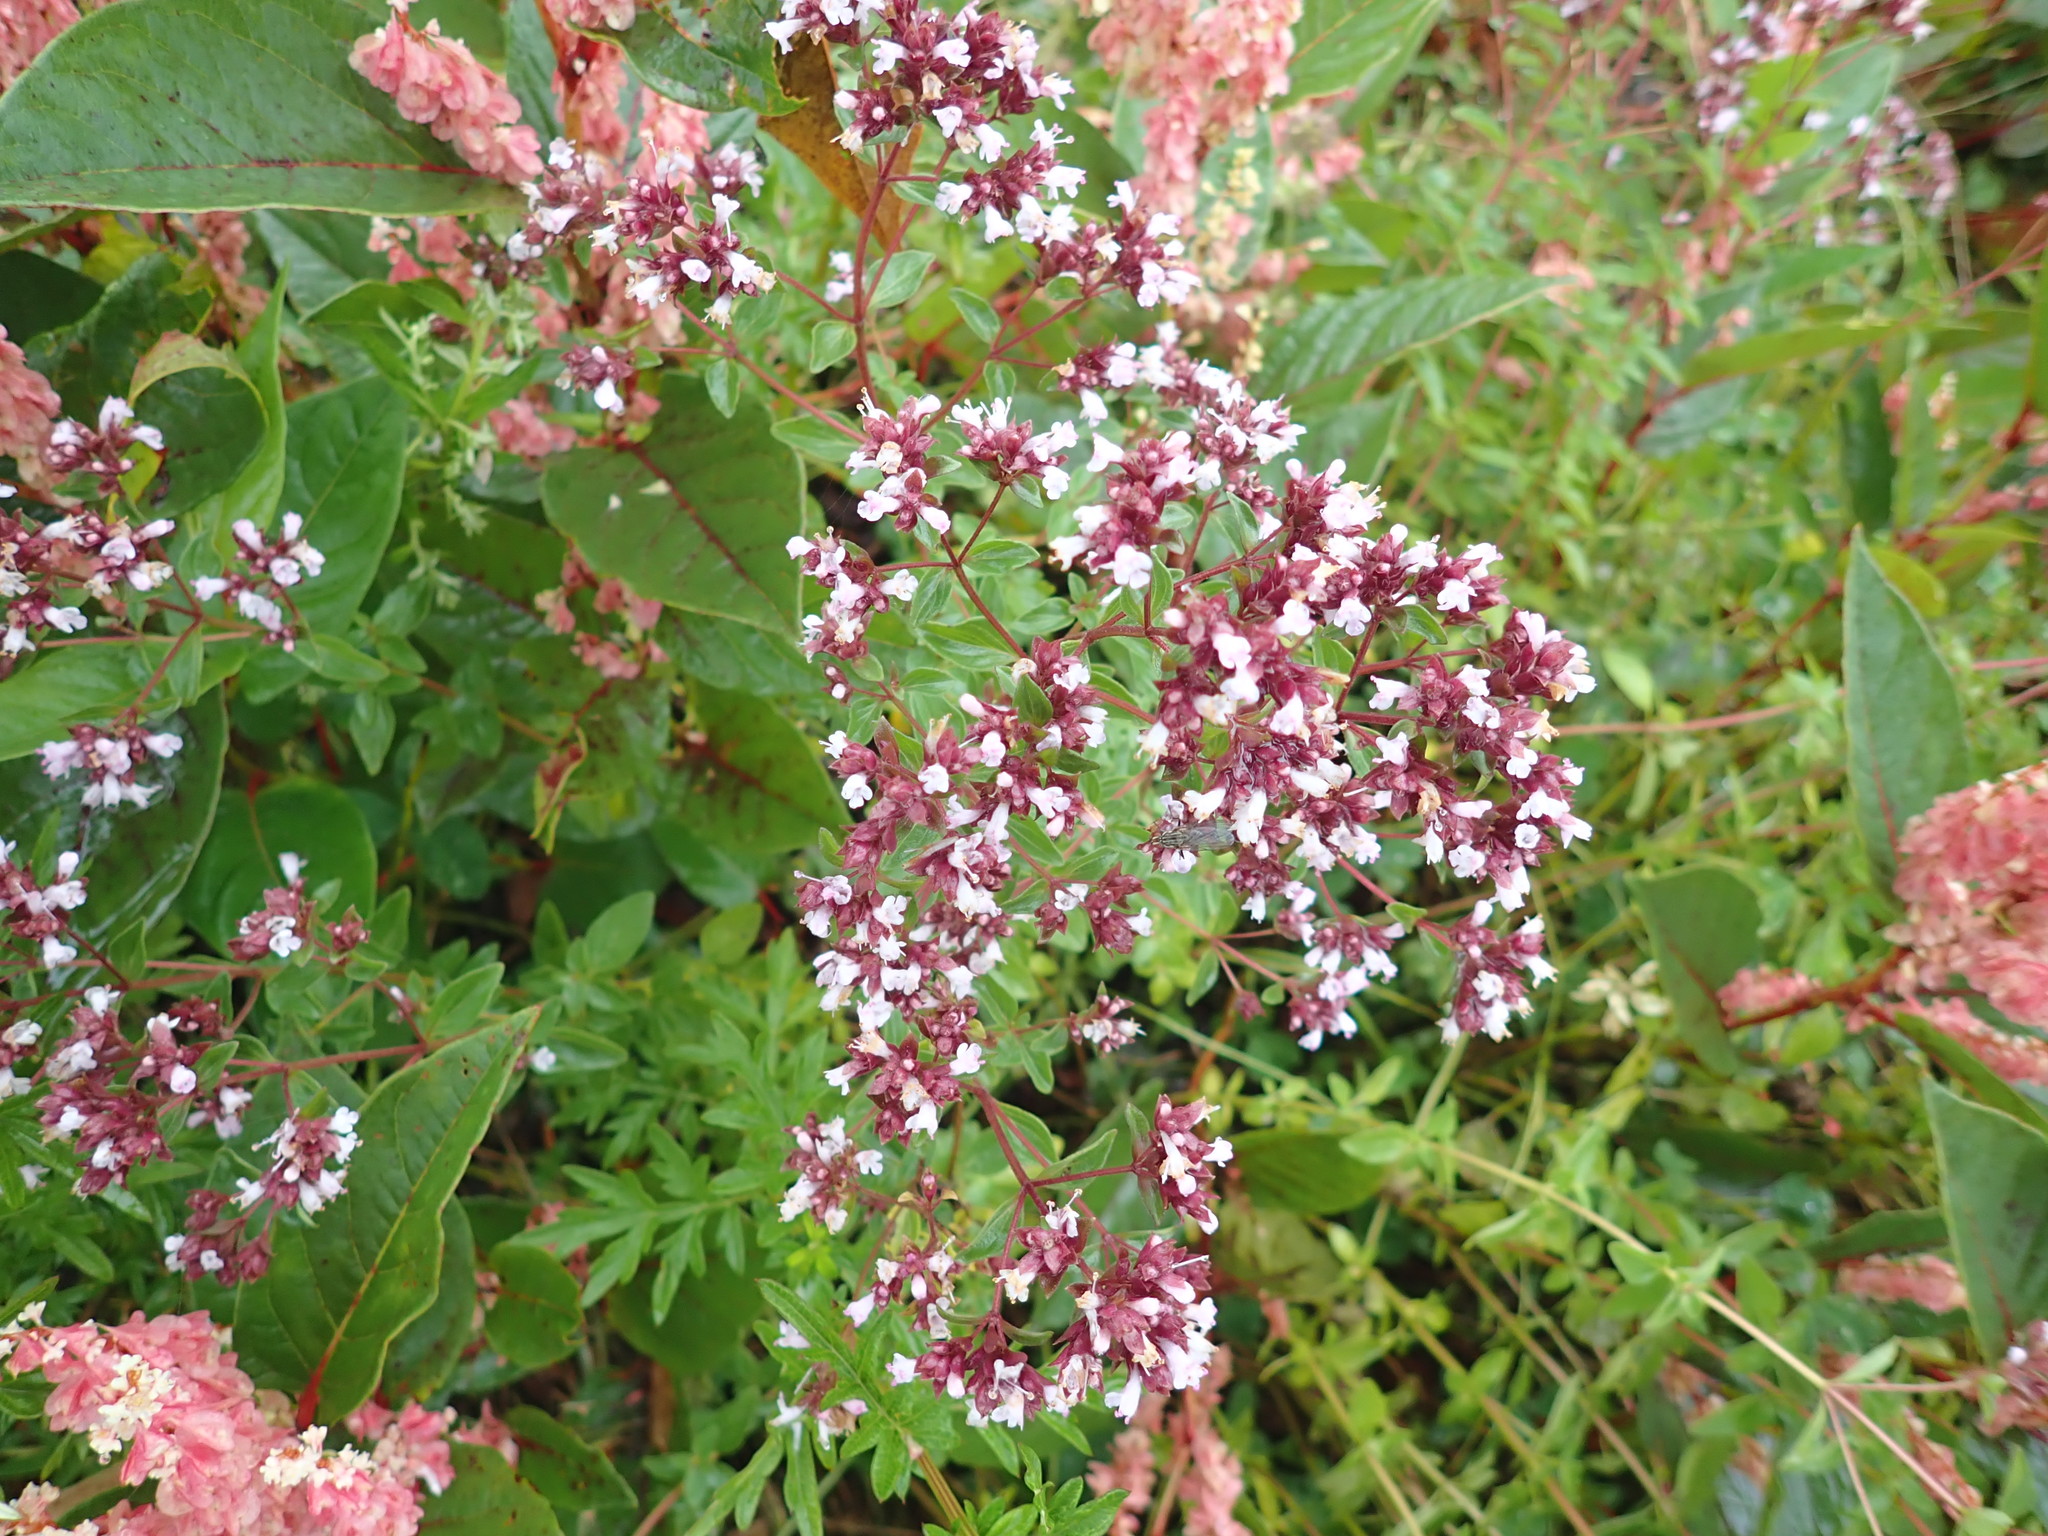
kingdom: Plantae
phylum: Tracheophyta
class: Magnoliopsida
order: Lamiales
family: Lamiaceae
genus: Origanum
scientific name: Origanum vulgare
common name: Wild marjoram
